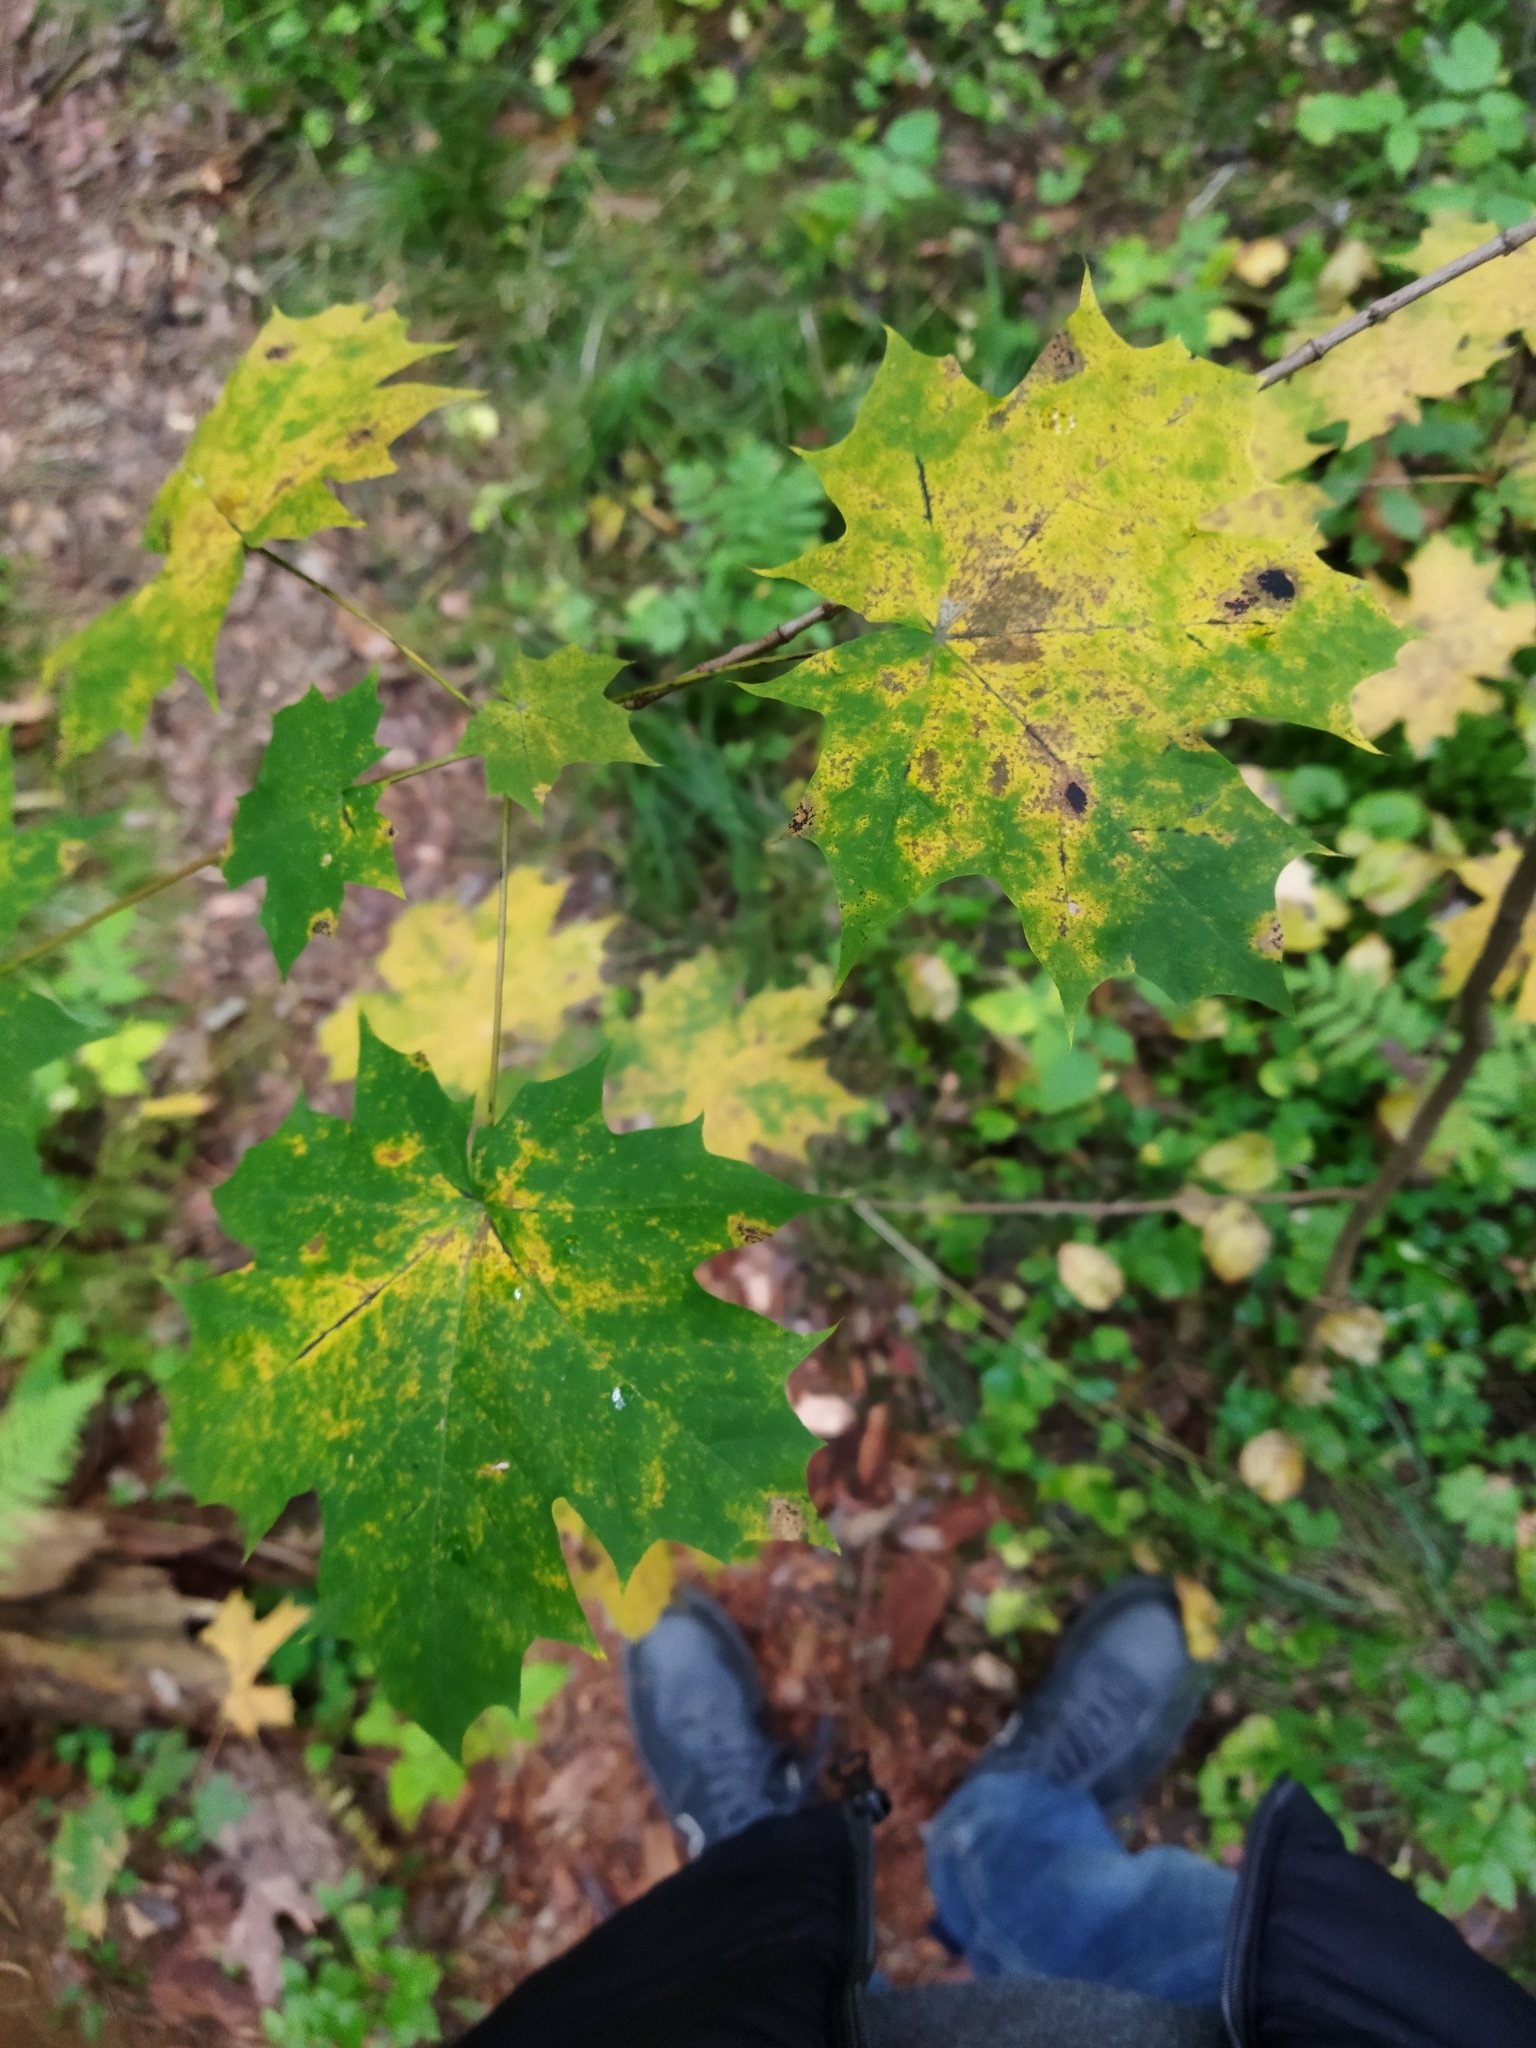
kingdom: Fungi
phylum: Ascomycota
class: Leotiomycetes
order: Rhytismatales
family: Rhytismataceae
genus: Rhytisma
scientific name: Rhytisma acerinum
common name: European tar spot
